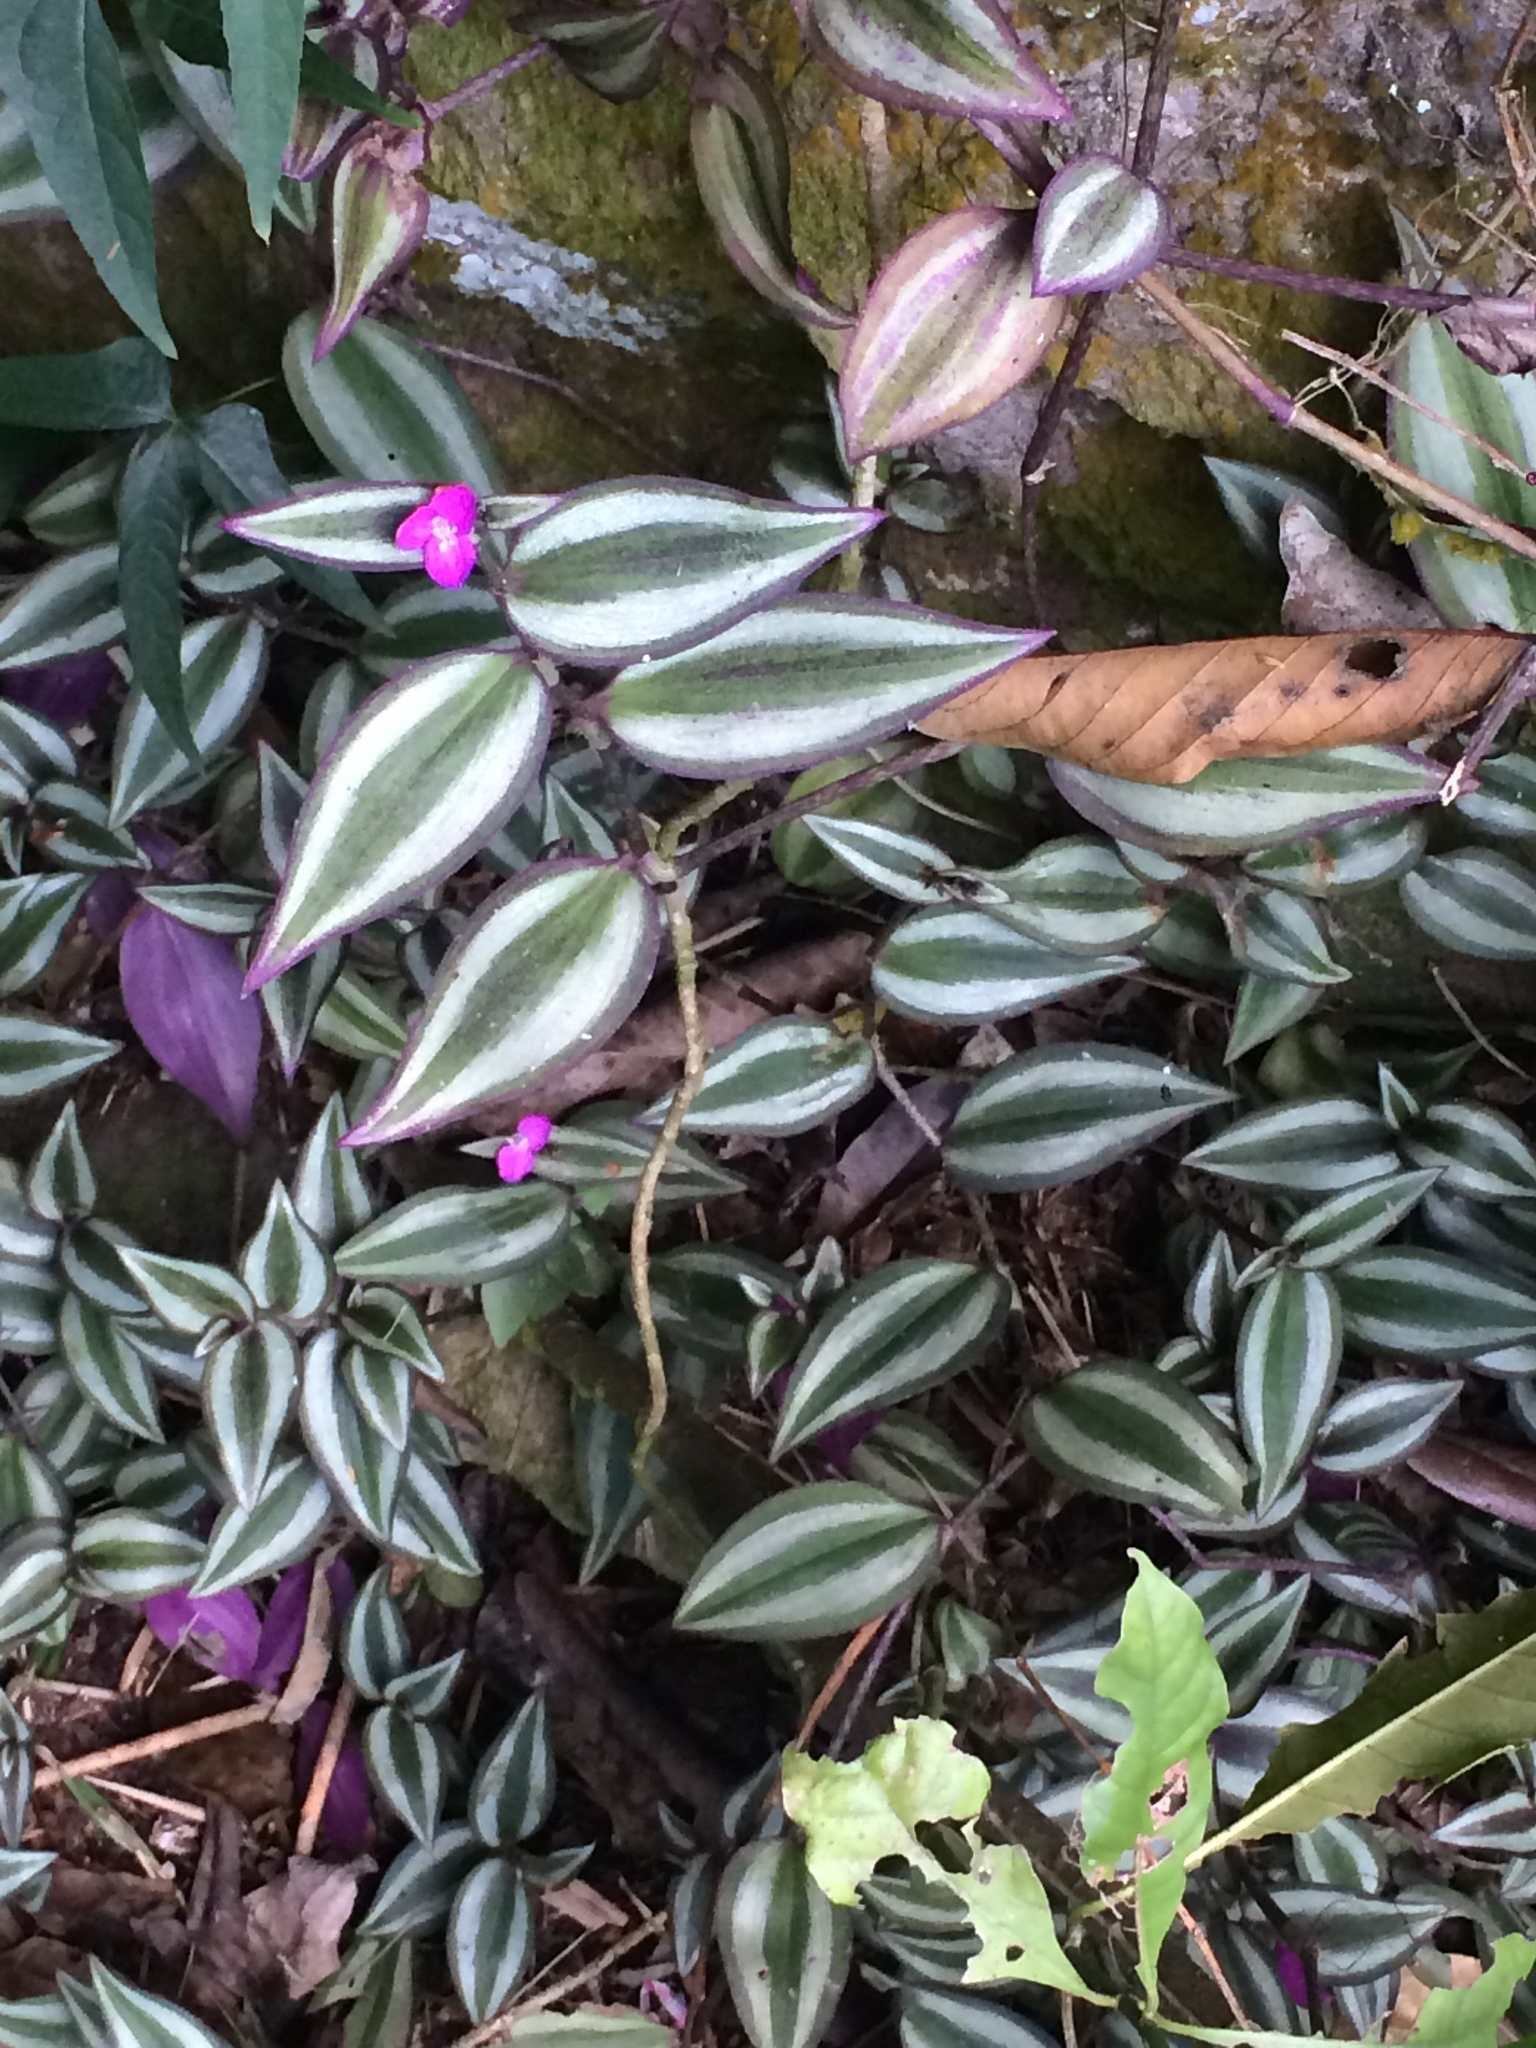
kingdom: Plantae
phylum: Tracheophyta
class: Liliopsida
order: Commelinales
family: Commelinaceae
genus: Tradescantia
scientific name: Tradescantia zebrina
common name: Inchplant
